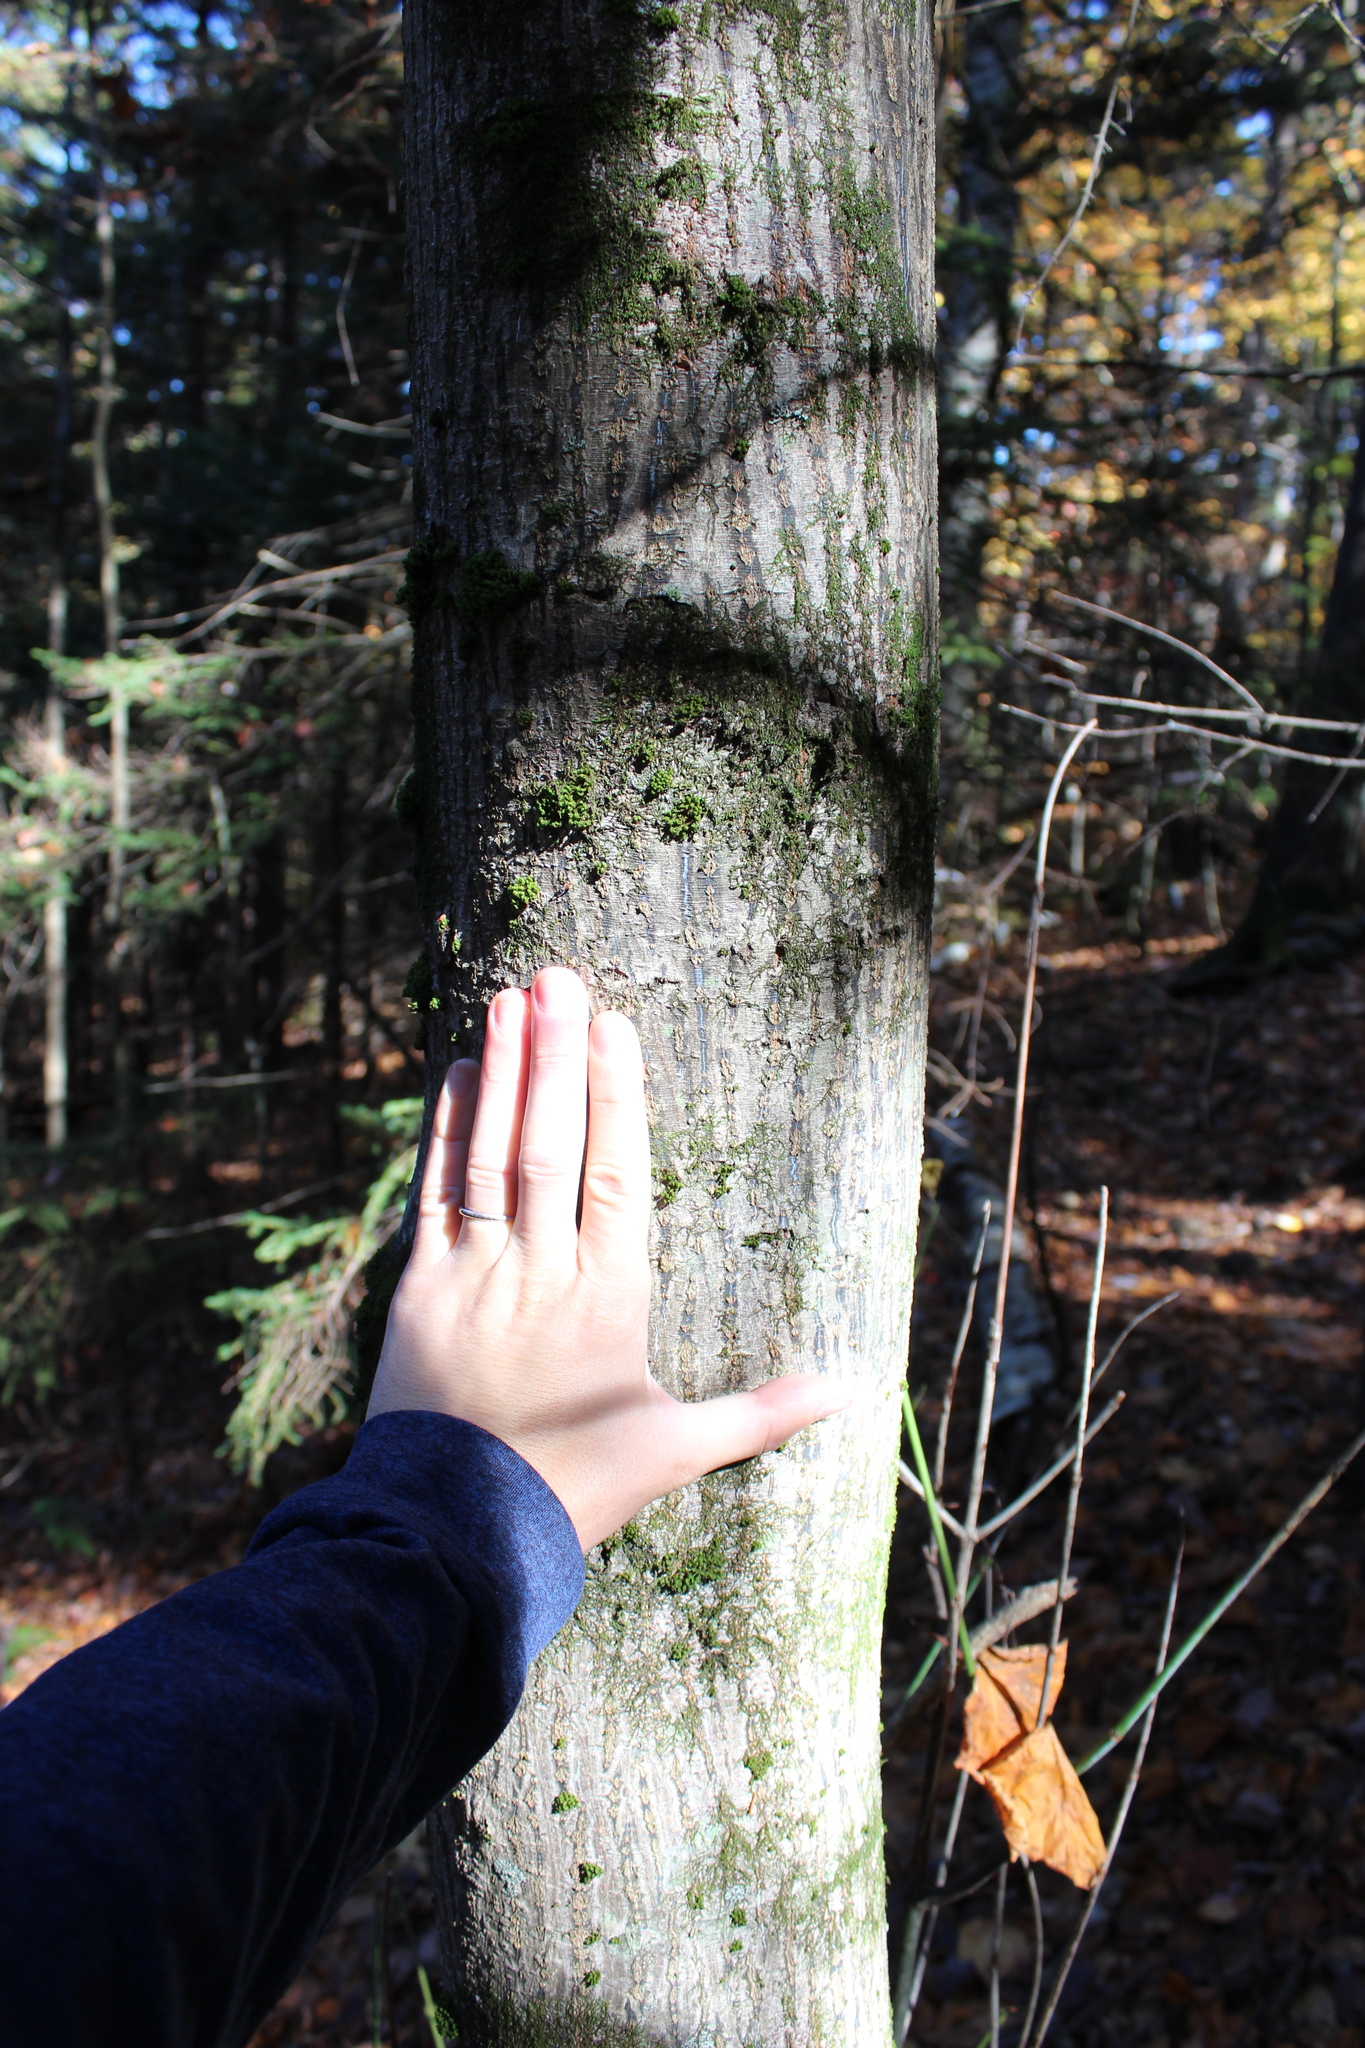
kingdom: Plantae
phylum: Tracheophyta
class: Magnoliopsida
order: Sapindales
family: Sapindaceae
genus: Acer
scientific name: Acer pensylvanicum
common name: Moosewood
